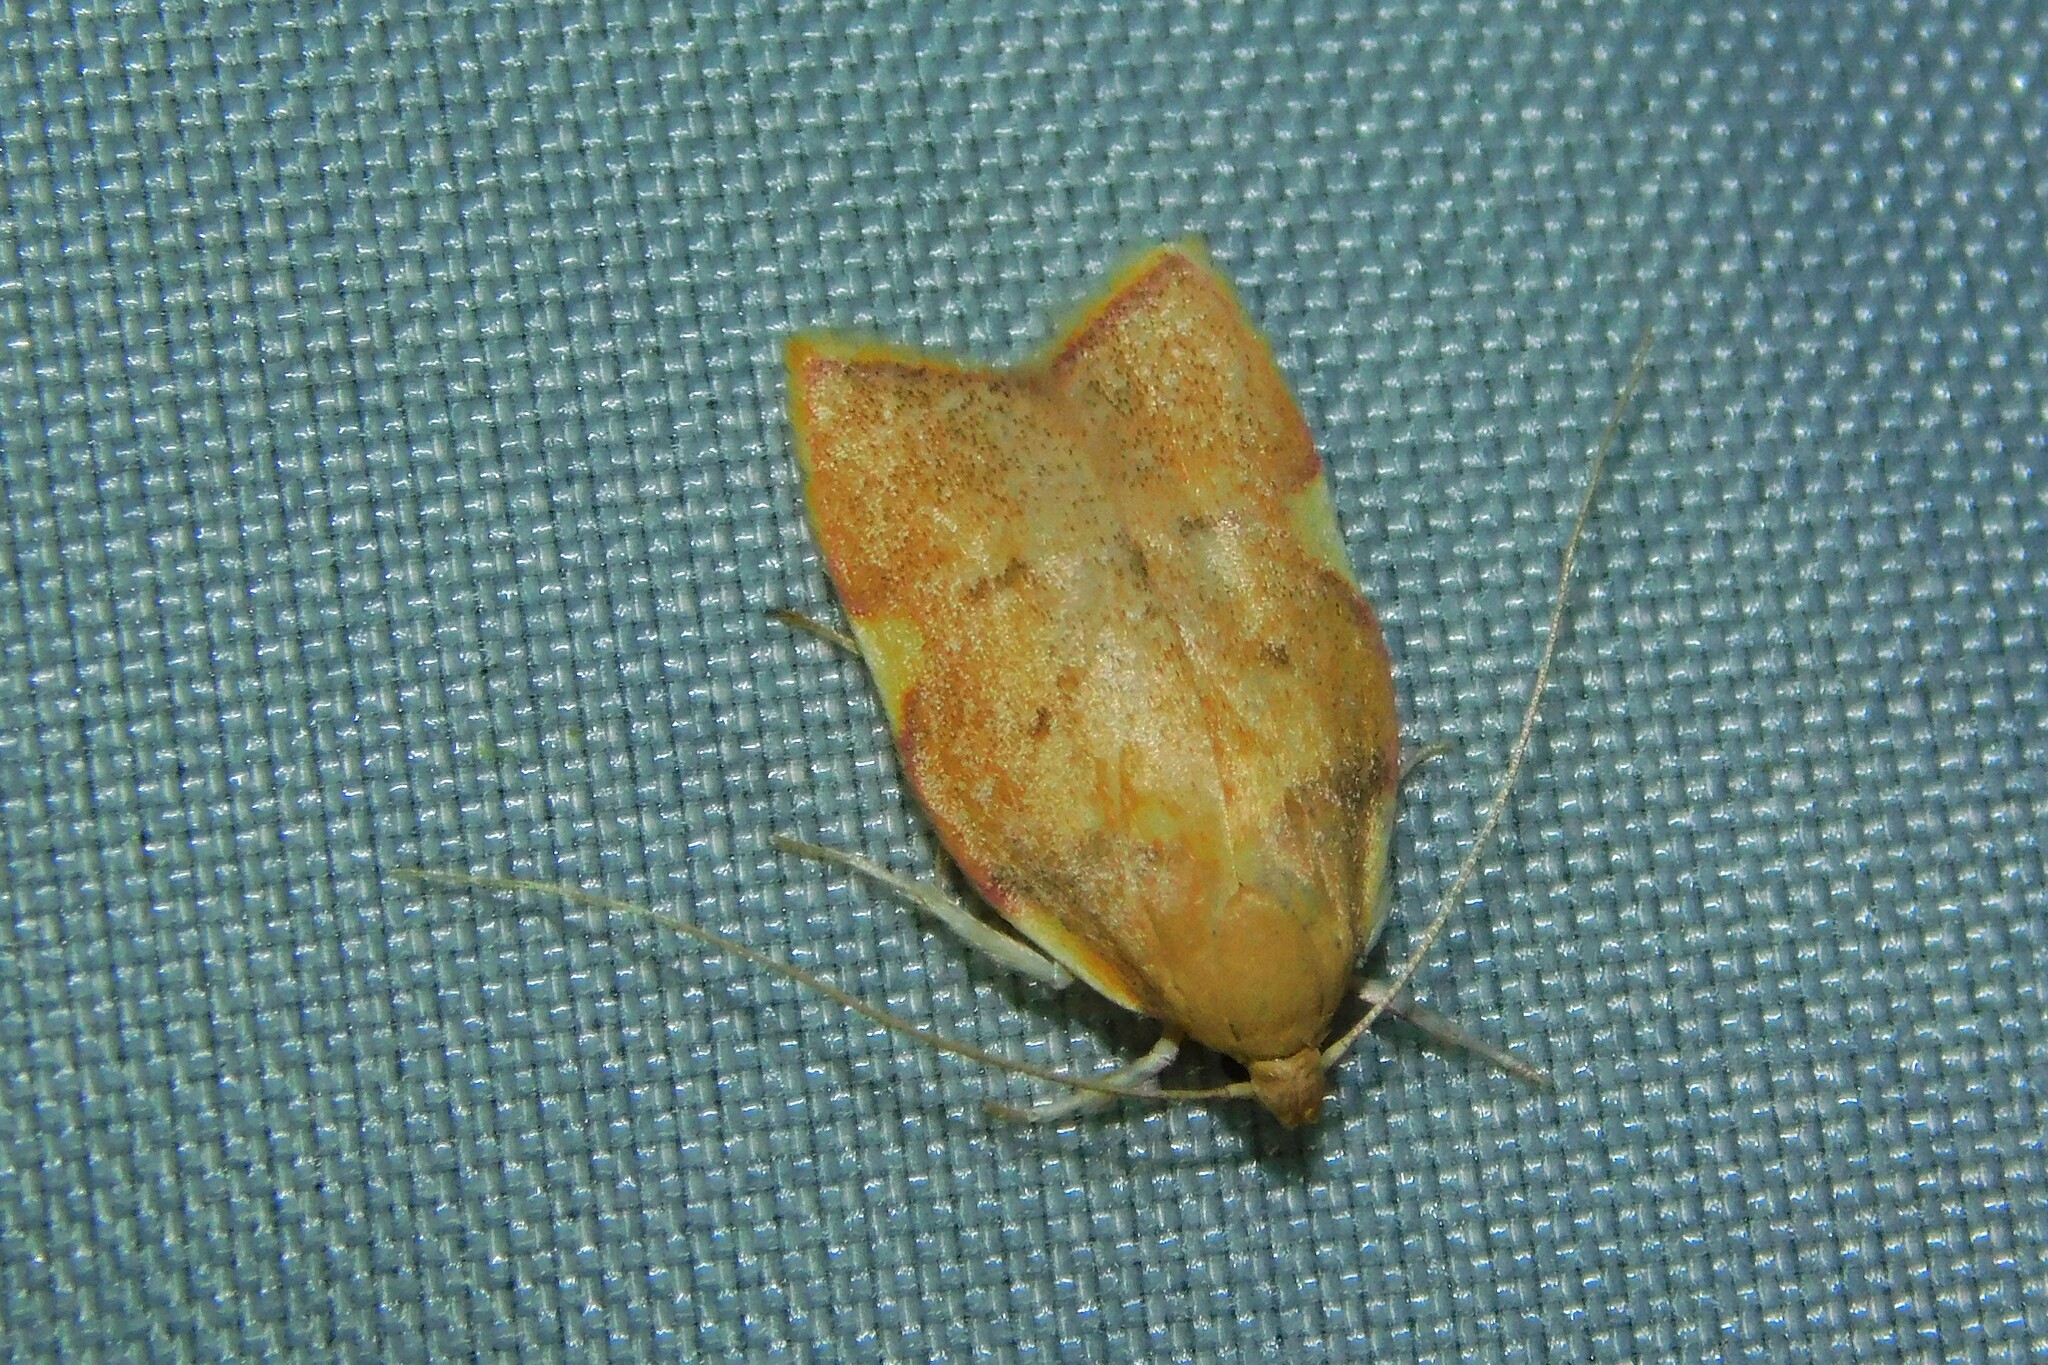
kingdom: Animalia
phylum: Arthropoda
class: Insecta
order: Lepidoptera
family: Peleopodidae
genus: Carcina
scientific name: Carcina quercana
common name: Moth
